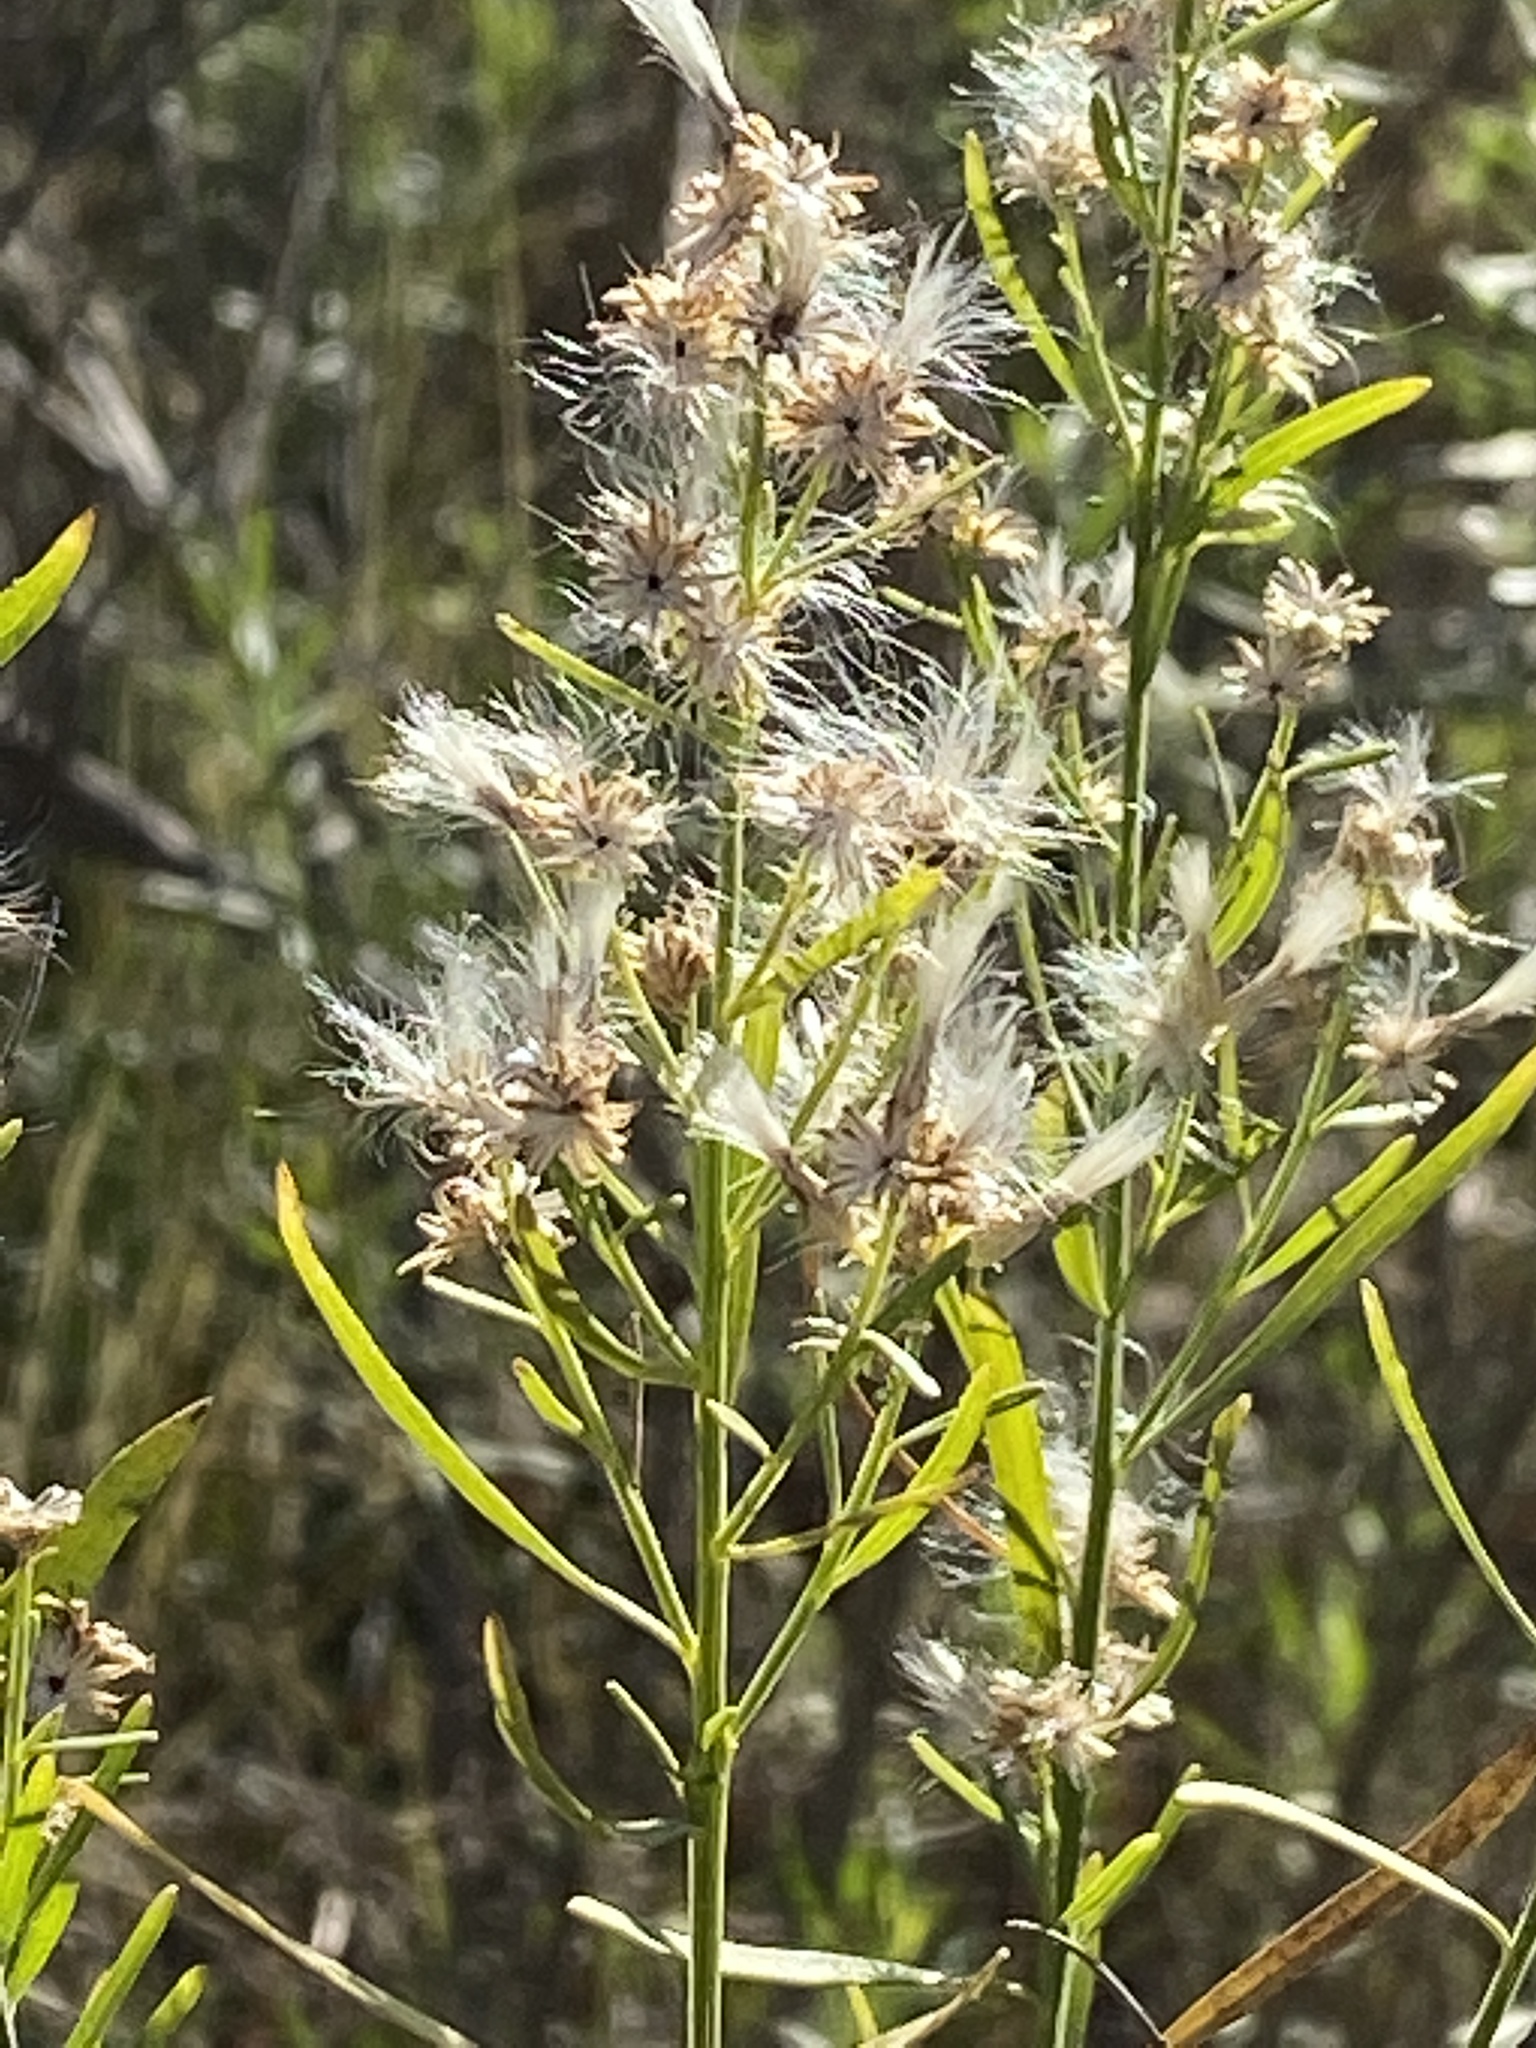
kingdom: Plantae
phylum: Tracheophyta
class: Magnoliopsida
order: Asterales
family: Asteraceae
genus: Baccharis
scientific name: Baccharis neglecta
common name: Roosevelt-weed
